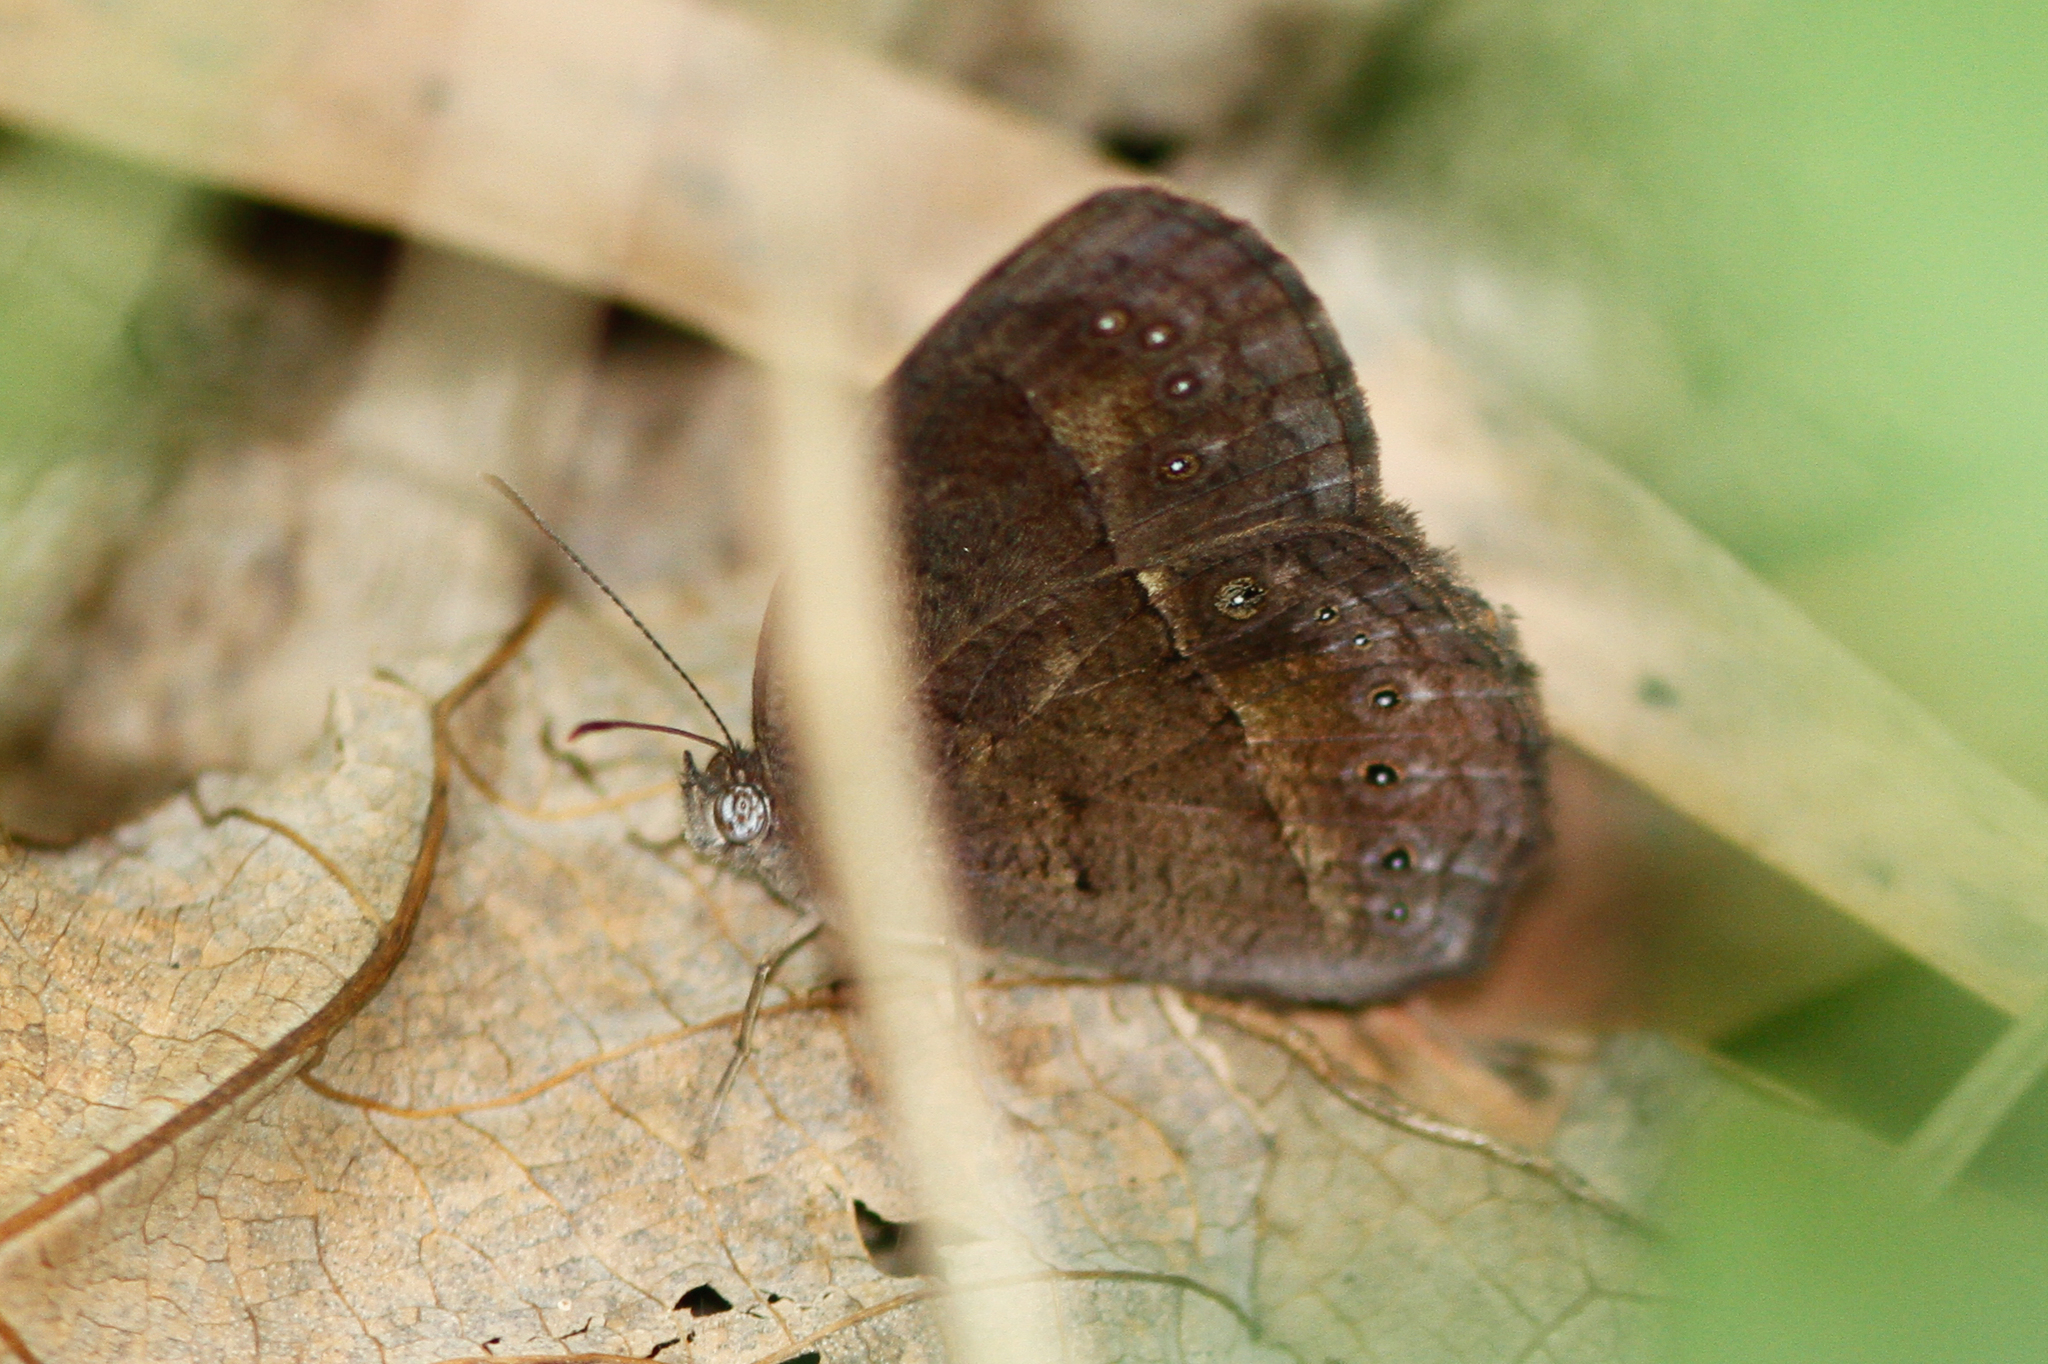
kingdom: Animalia
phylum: Arthropoda
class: Insecta
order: Lepidoptera
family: Nymphalidae
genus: Mycalesis
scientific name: Mycalesis perseus
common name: Dingy bushbrown
